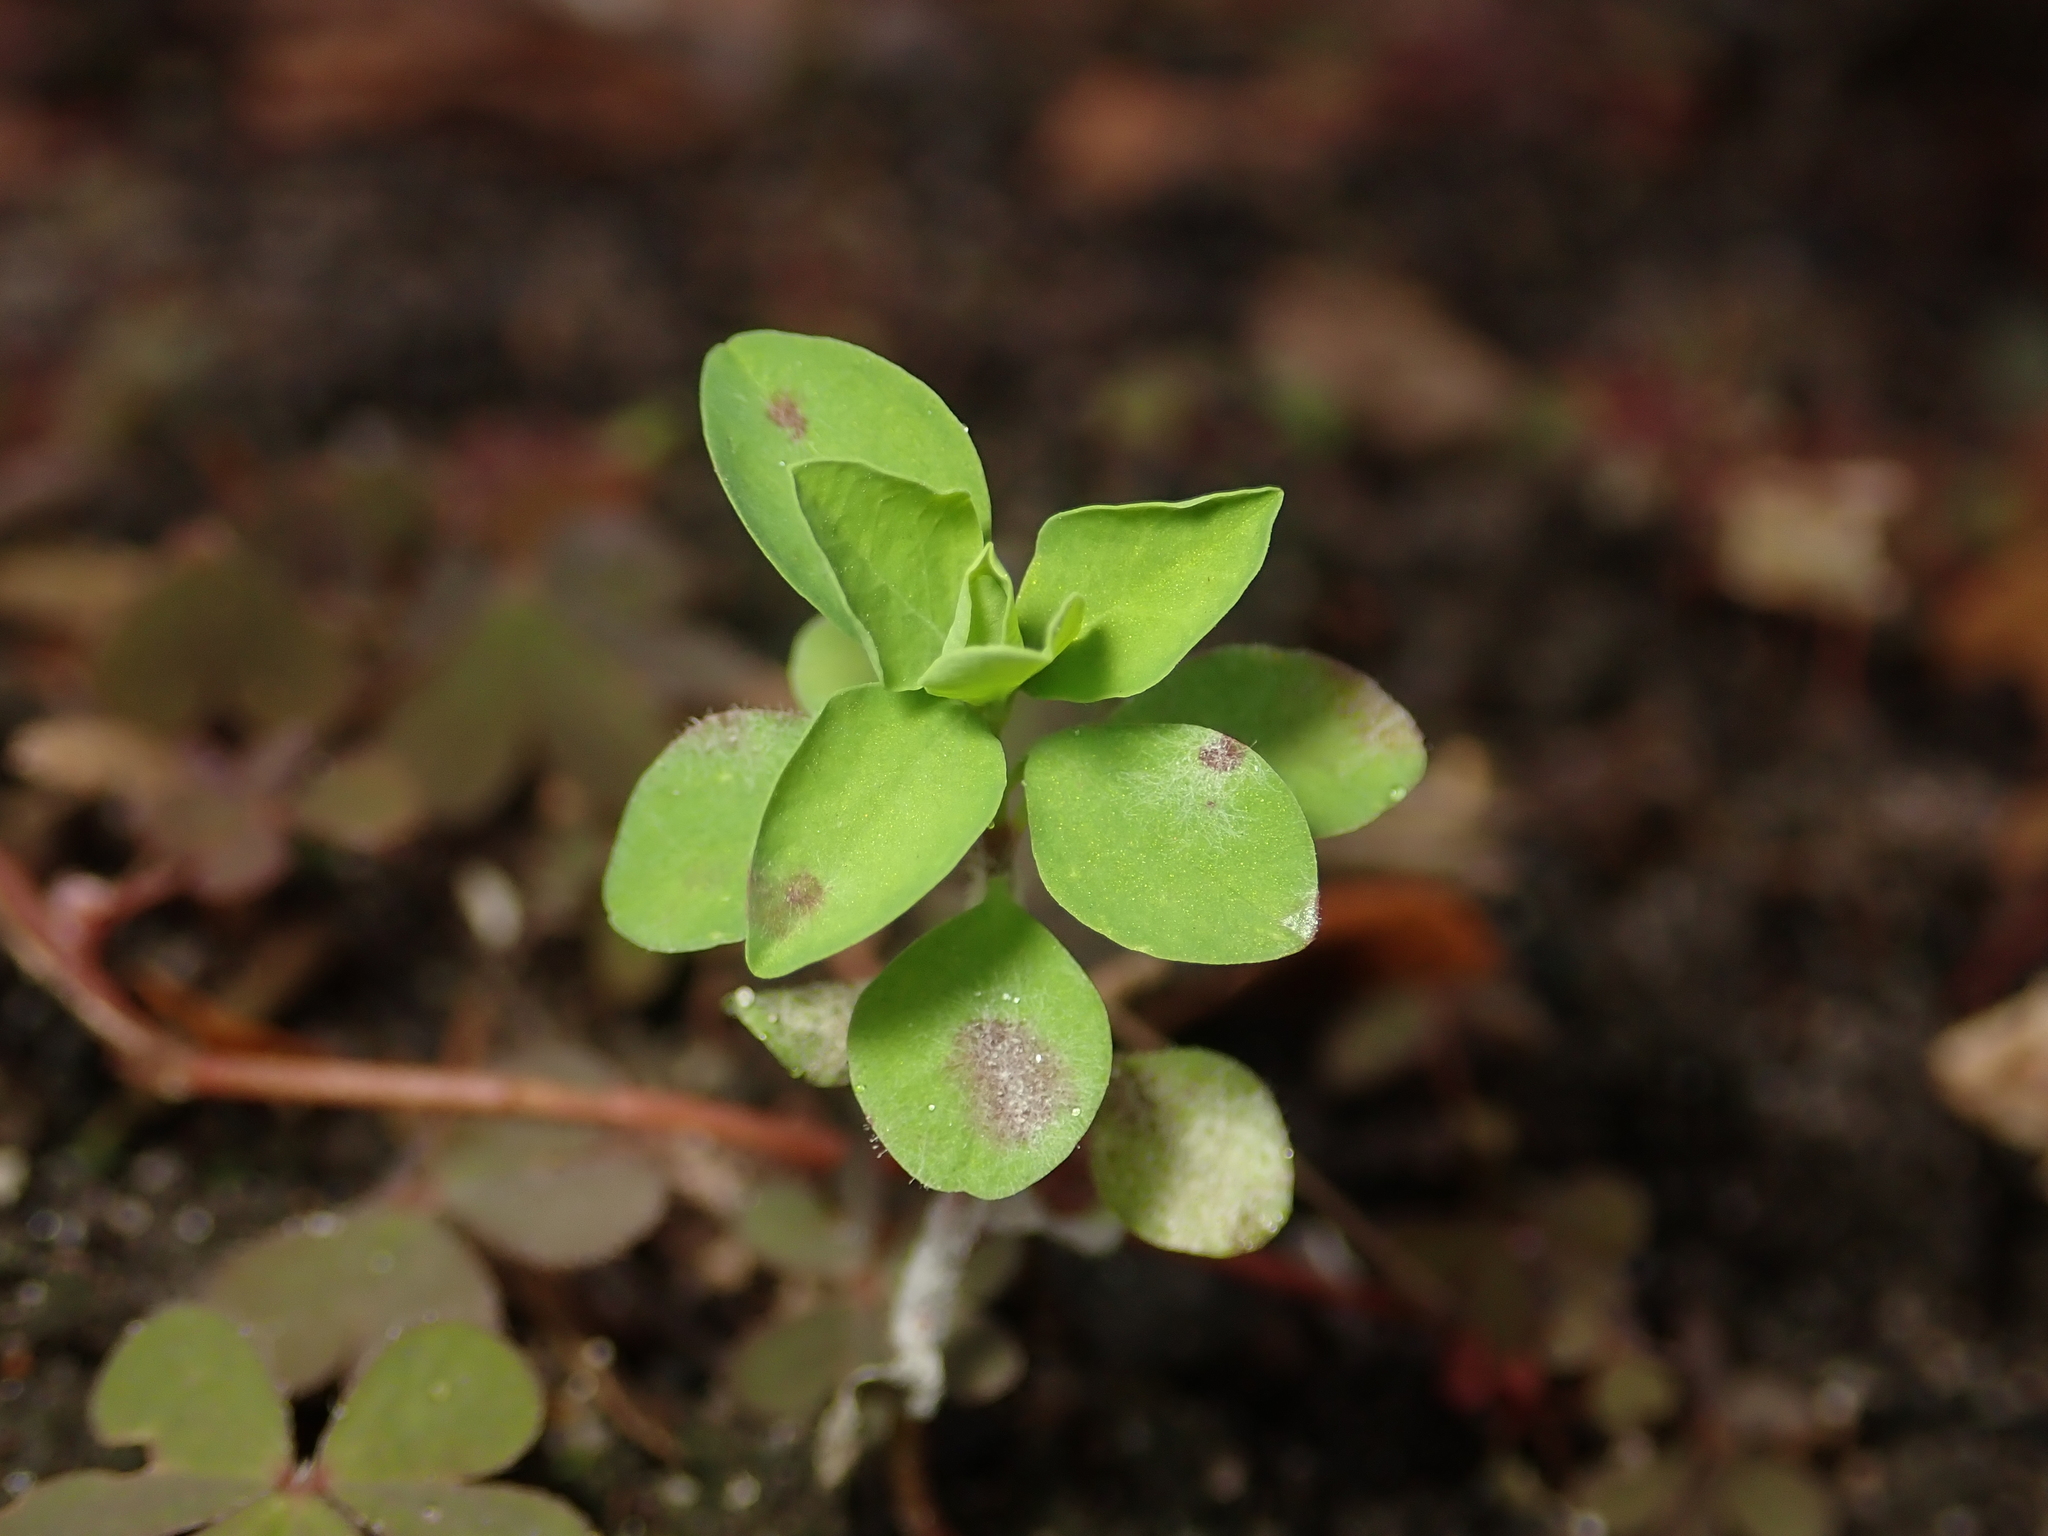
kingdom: Plantae
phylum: Tracheophyta
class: Magnoliopsida
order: Malpighiales
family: Euphorbiaceae
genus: Euphorbia
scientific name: Euphorbia peplus
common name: Petty spurge
